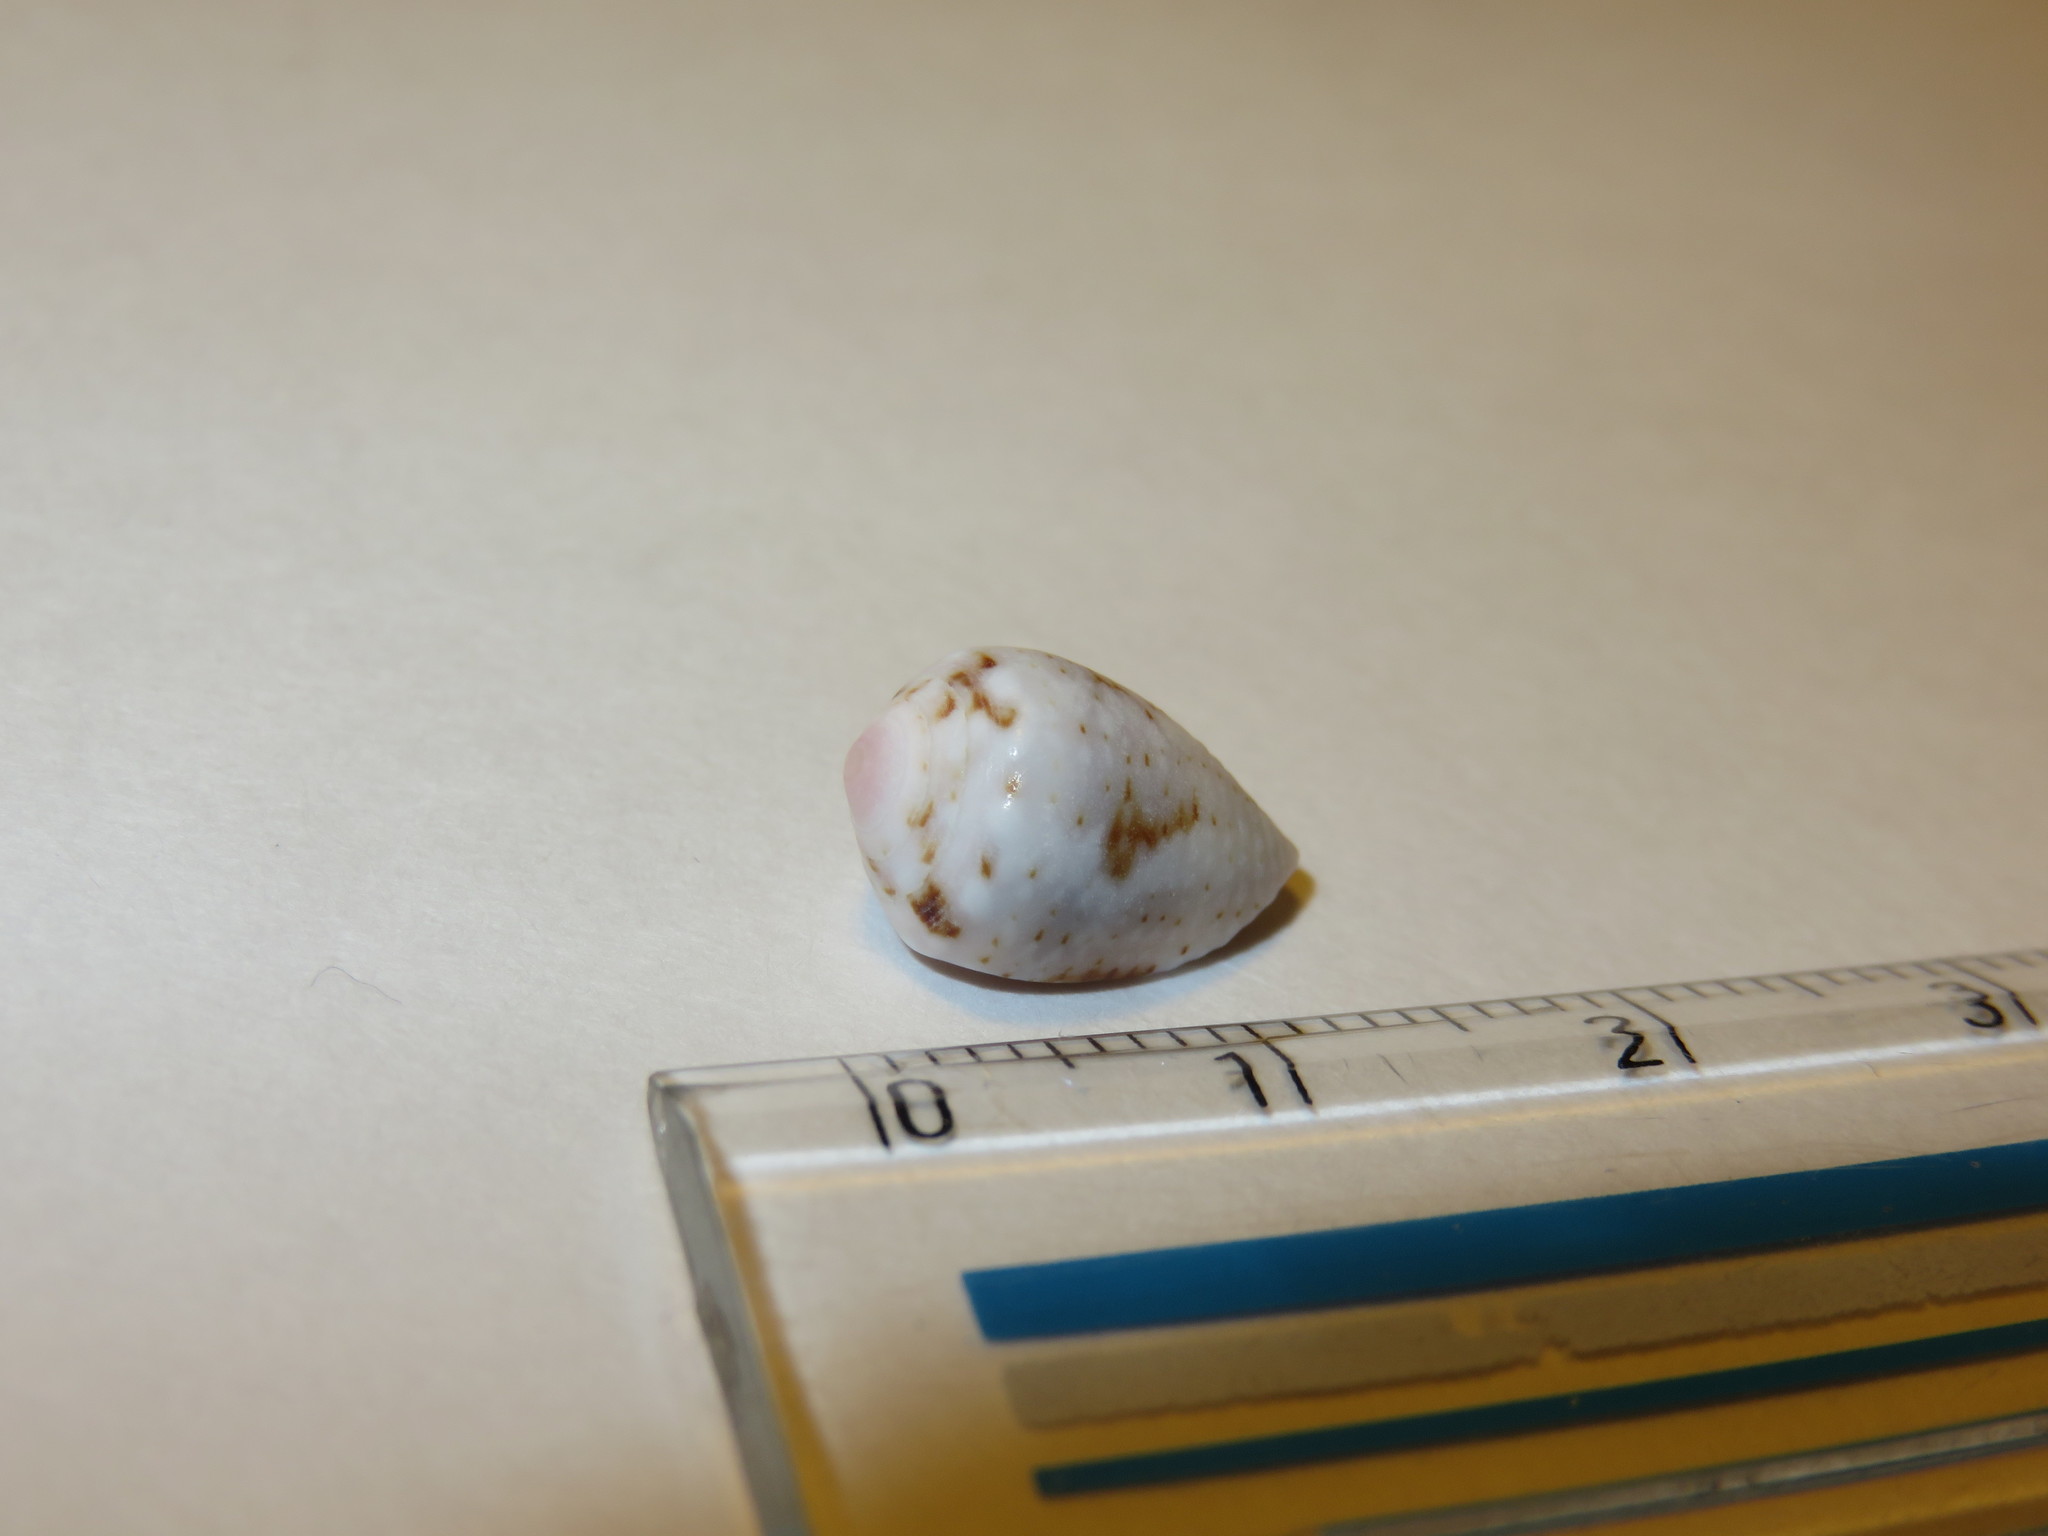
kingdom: Animalia
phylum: Mollusca
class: Gastropoda
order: Neogastropoda
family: Conidae
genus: Conus
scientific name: Conus coronatus
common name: Coronated cone
